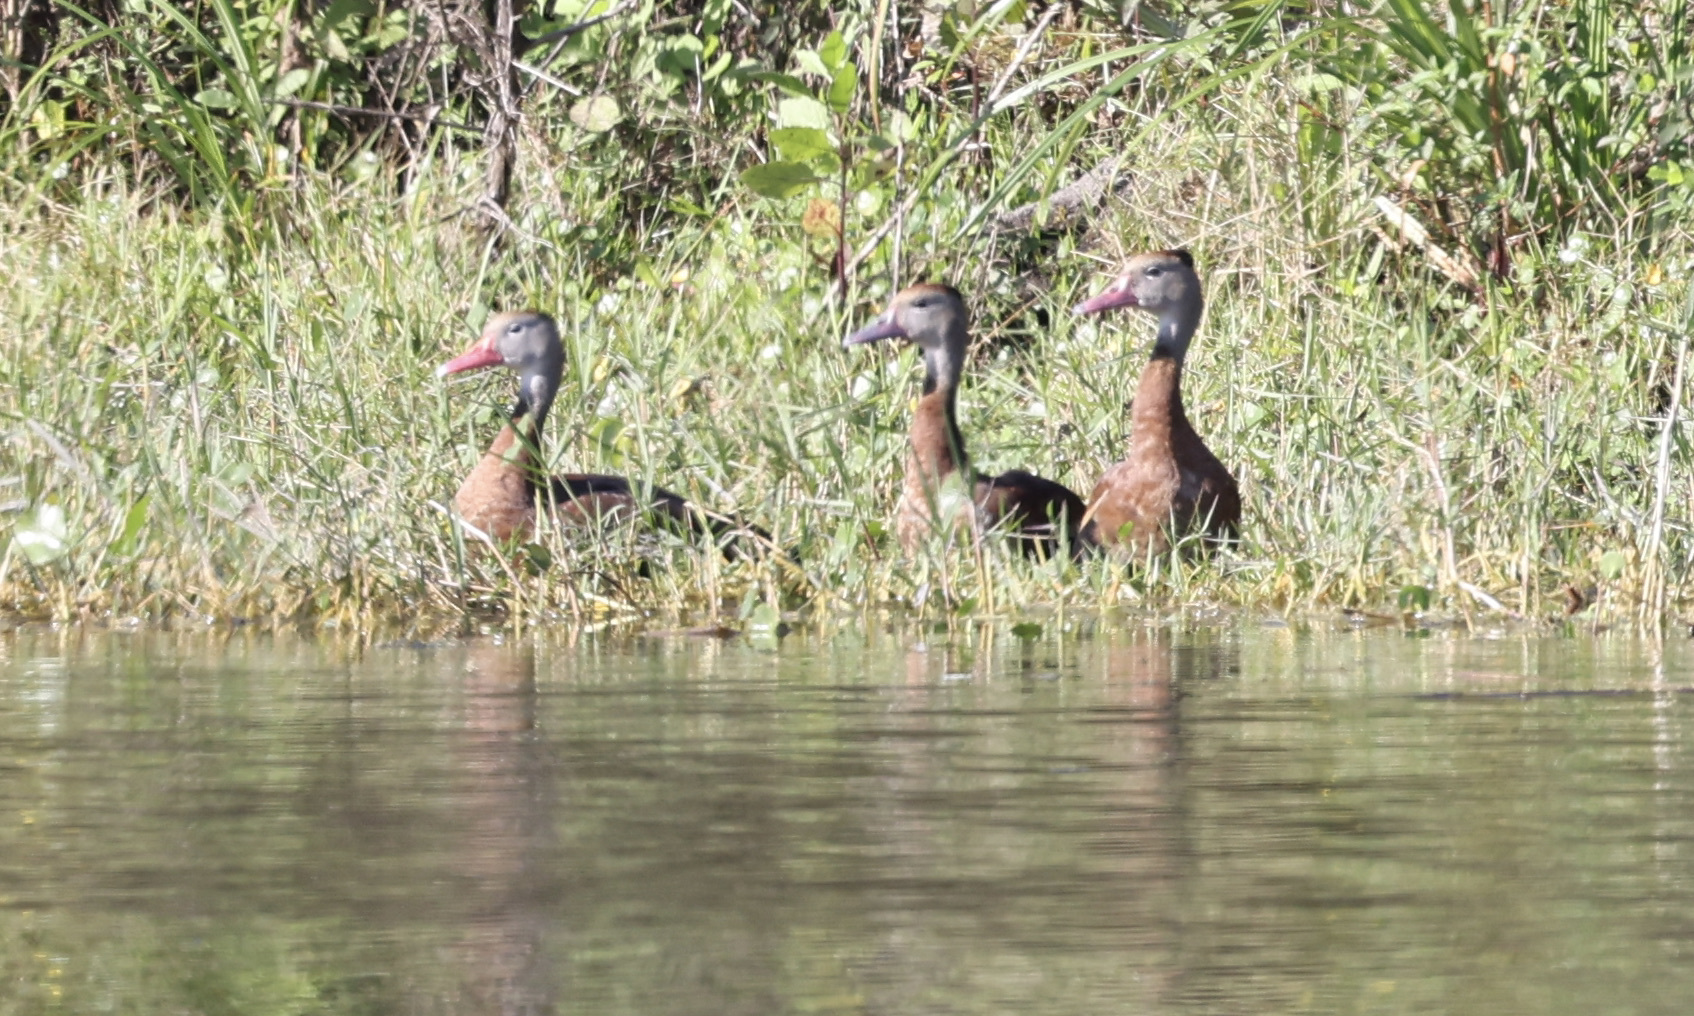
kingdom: Animalia
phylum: Chordata
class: Aves
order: Anseriformes
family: Anatidae
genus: Dendrocygna
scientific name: Dendrocygna autumnalis
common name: Black-bellied whistling duck
